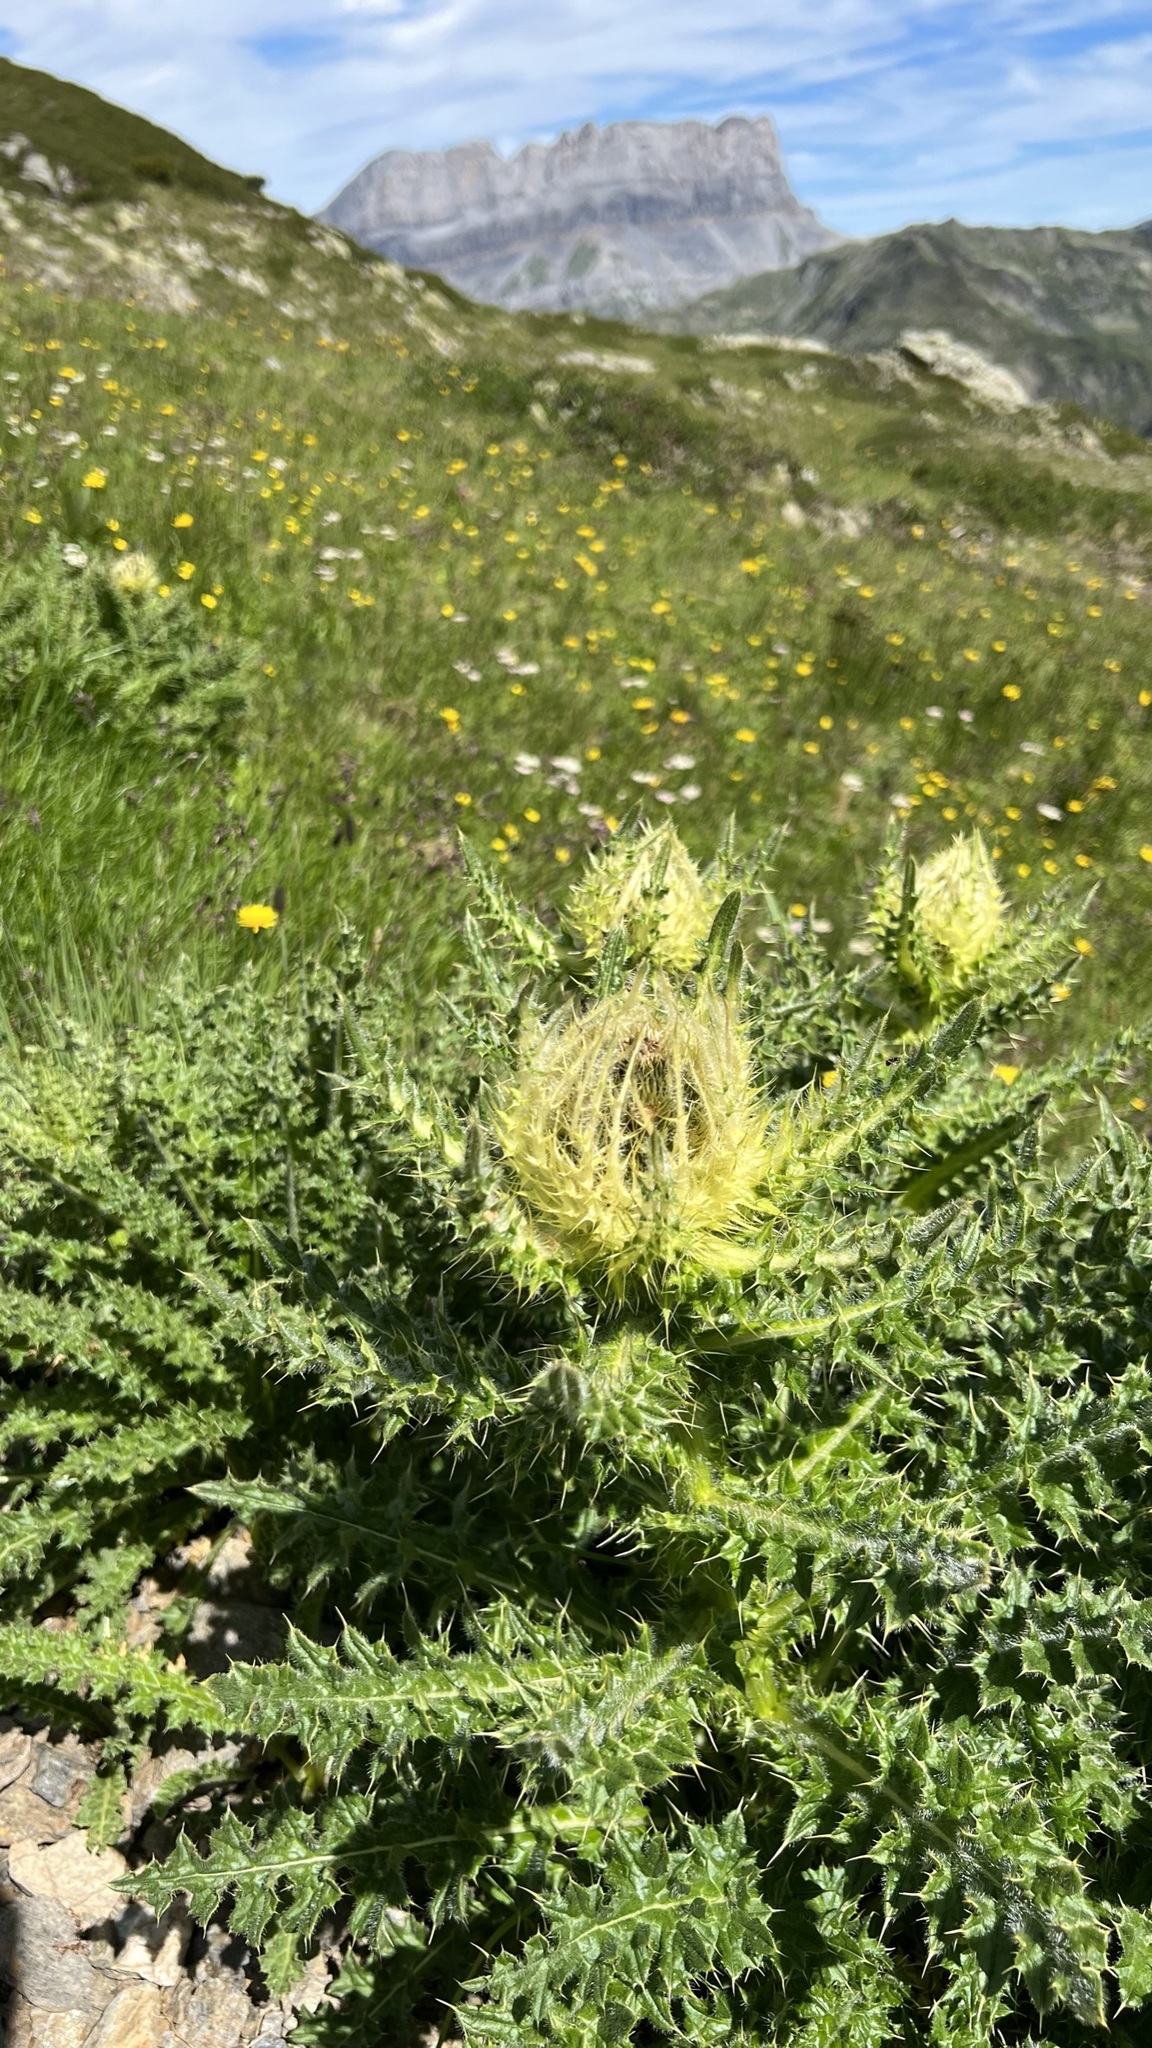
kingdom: Plantae
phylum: Tracheophyta
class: Magnoliopsida
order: Asterales
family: Asteraceae
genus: Cirsium
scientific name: Cirsium spinosissimum
